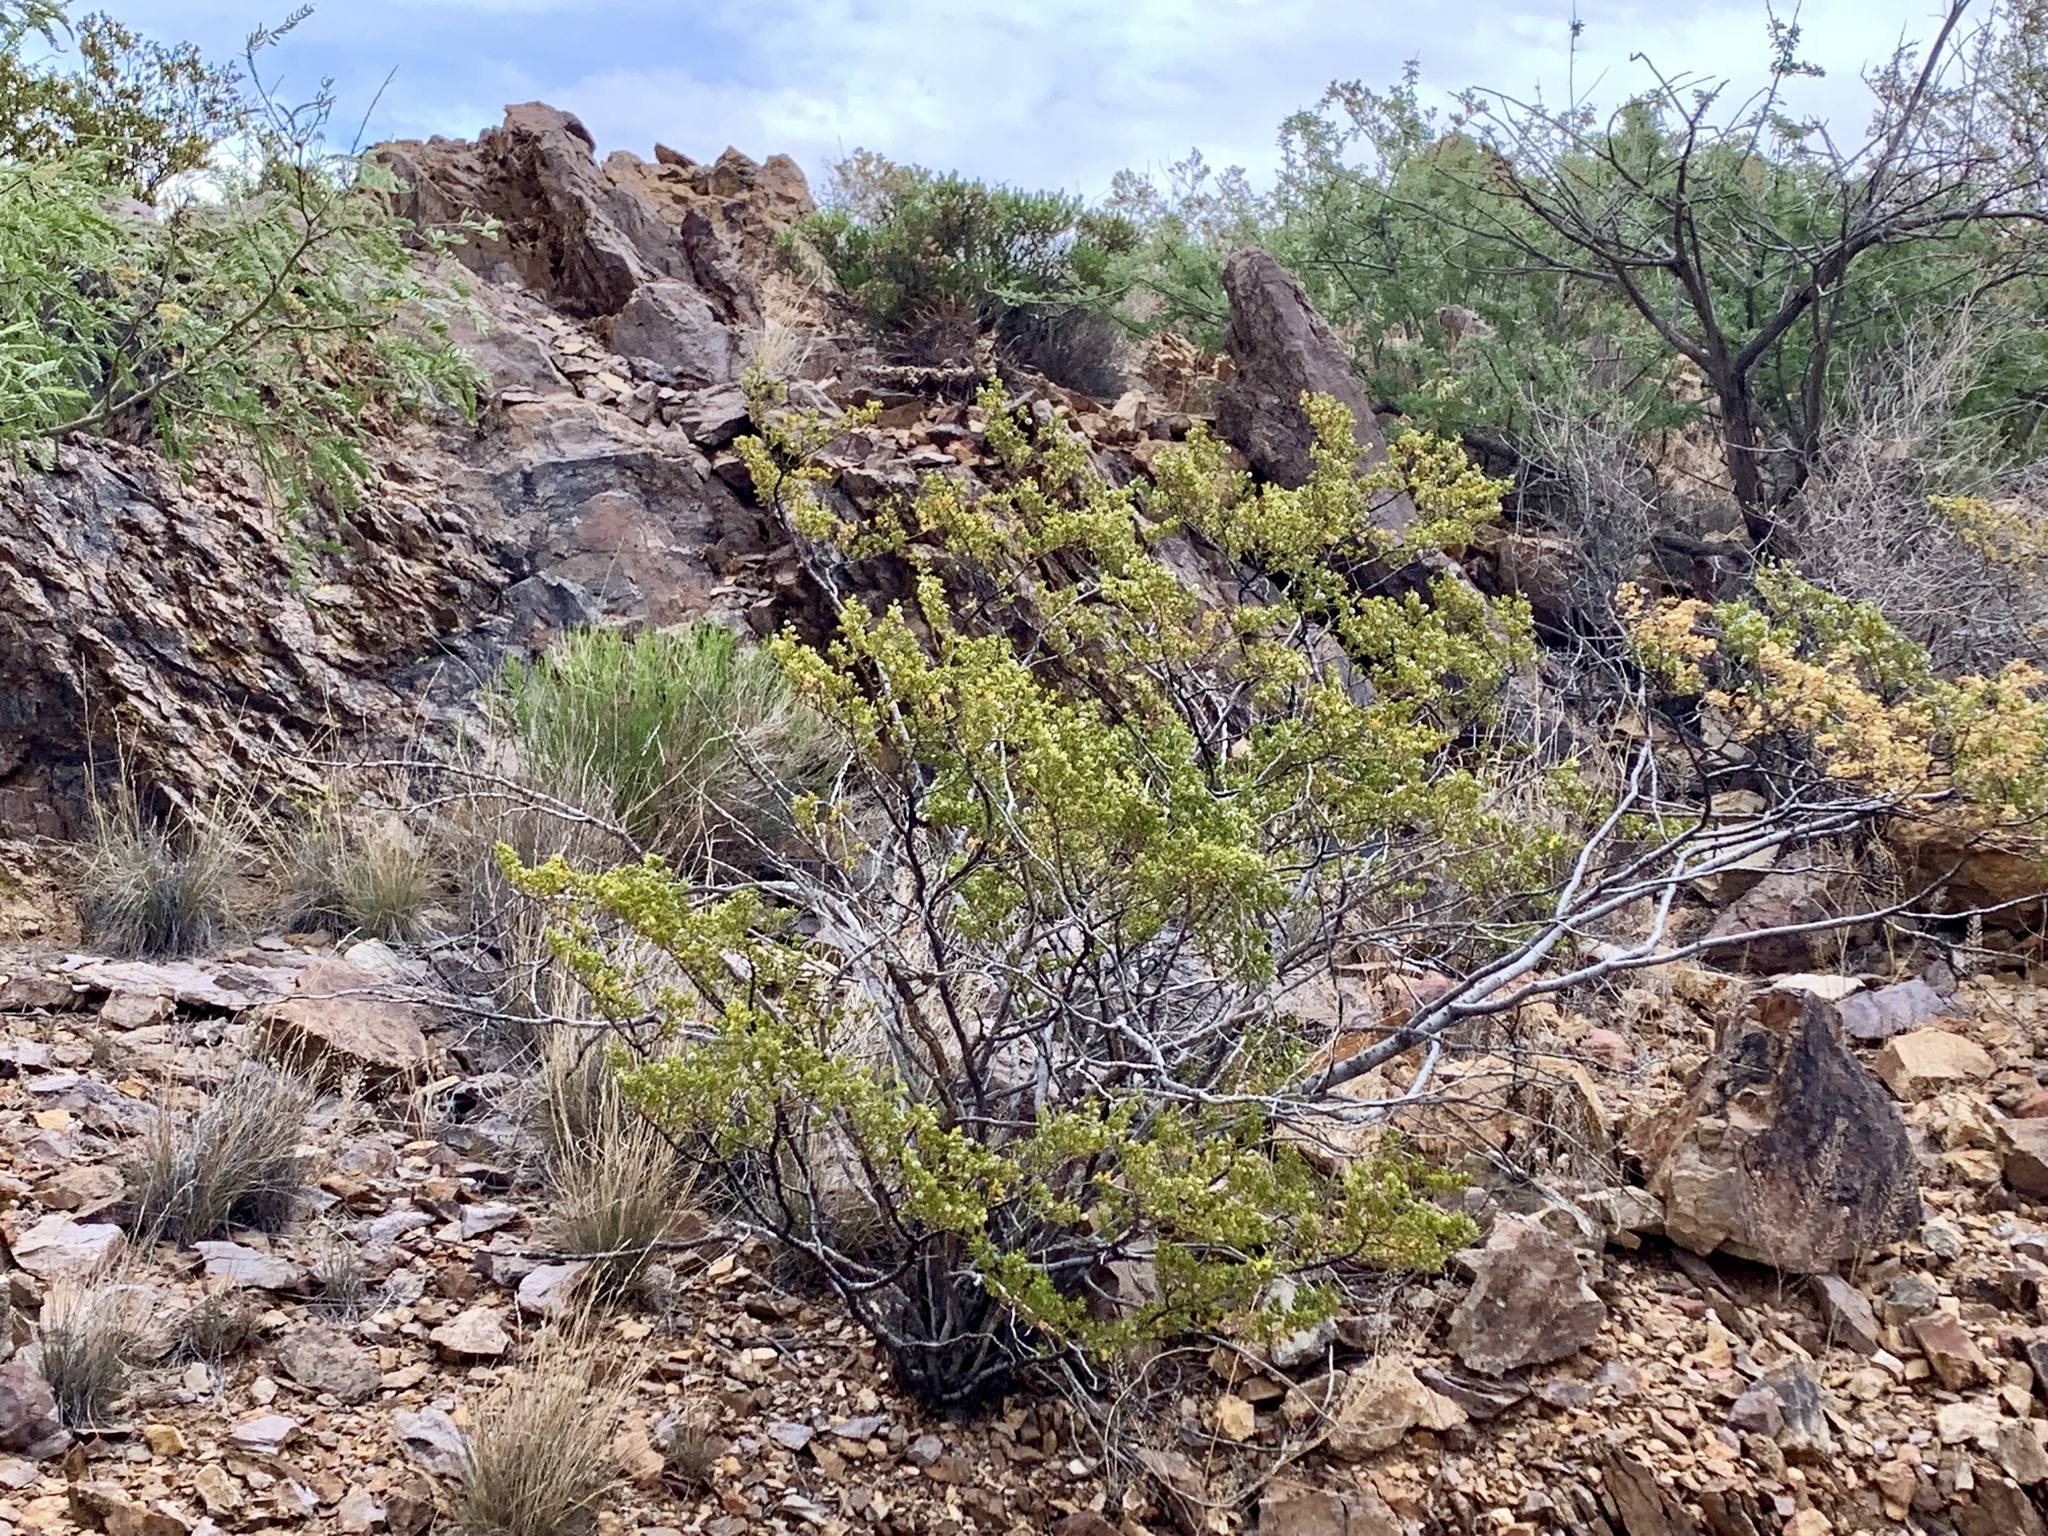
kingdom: Plantae
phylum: Tracheophyta
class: Magnoliopsida
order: Zygophyllales
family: Zygophyllaceae
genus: Larrea
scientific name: Larrea tridentata
